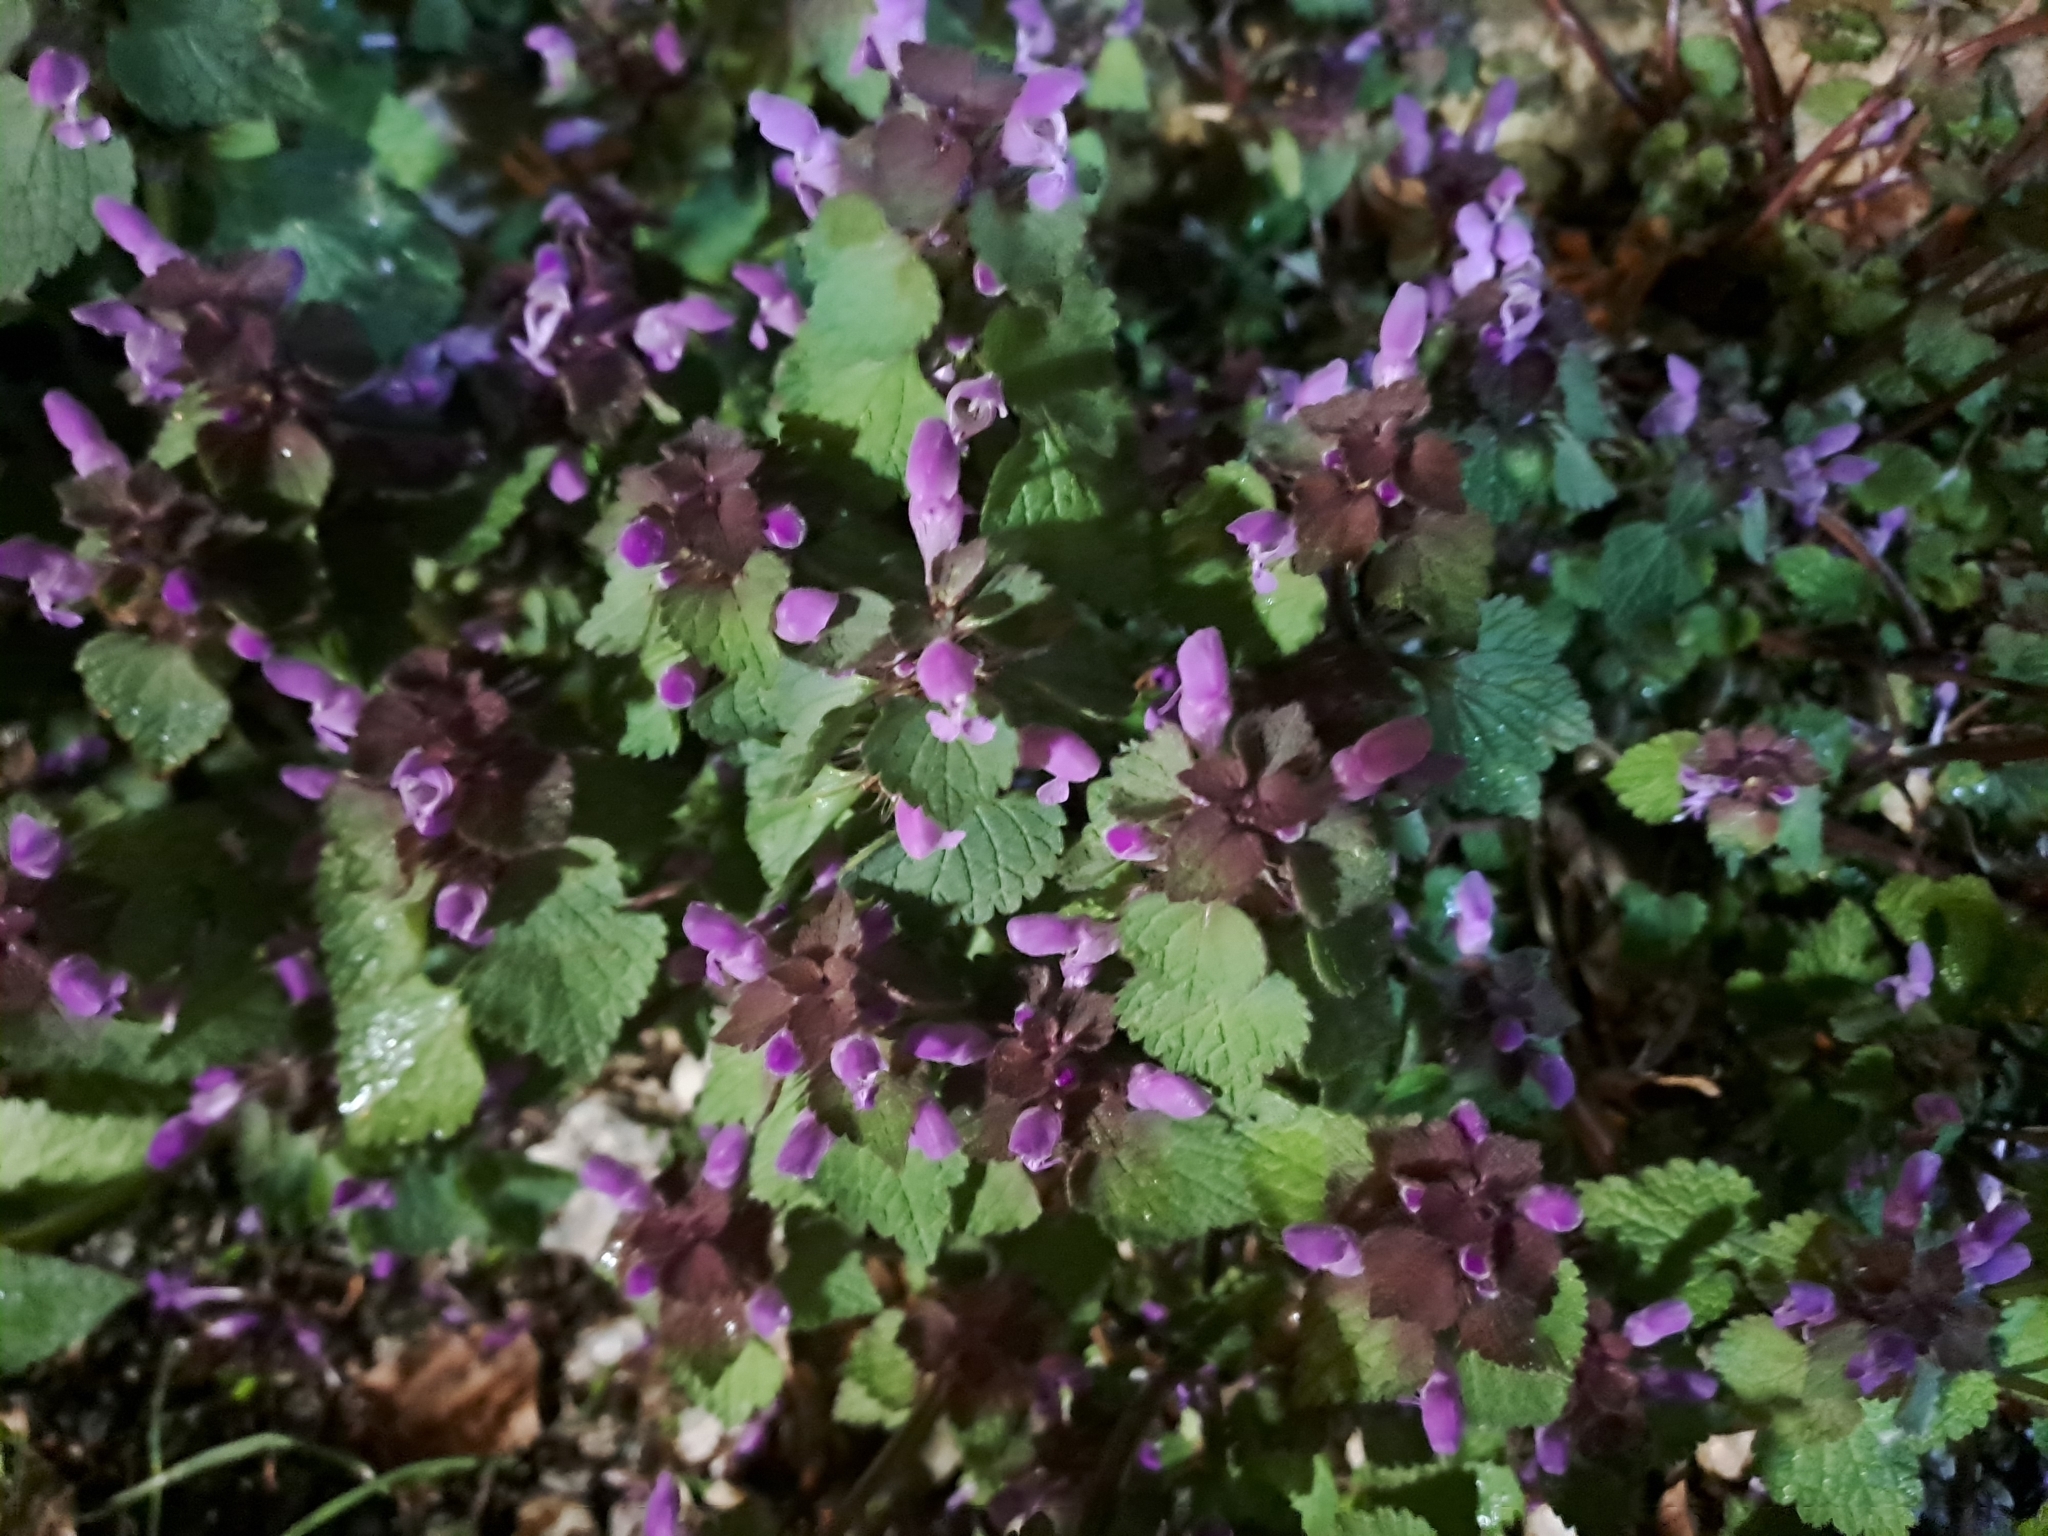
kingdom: Plantae
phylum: Tracheophyta
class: Magnoliopsida
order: Lamiales
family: Lamiaceae
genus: Lamium
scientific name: Lamium purpureum
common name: Red dead-nettle
